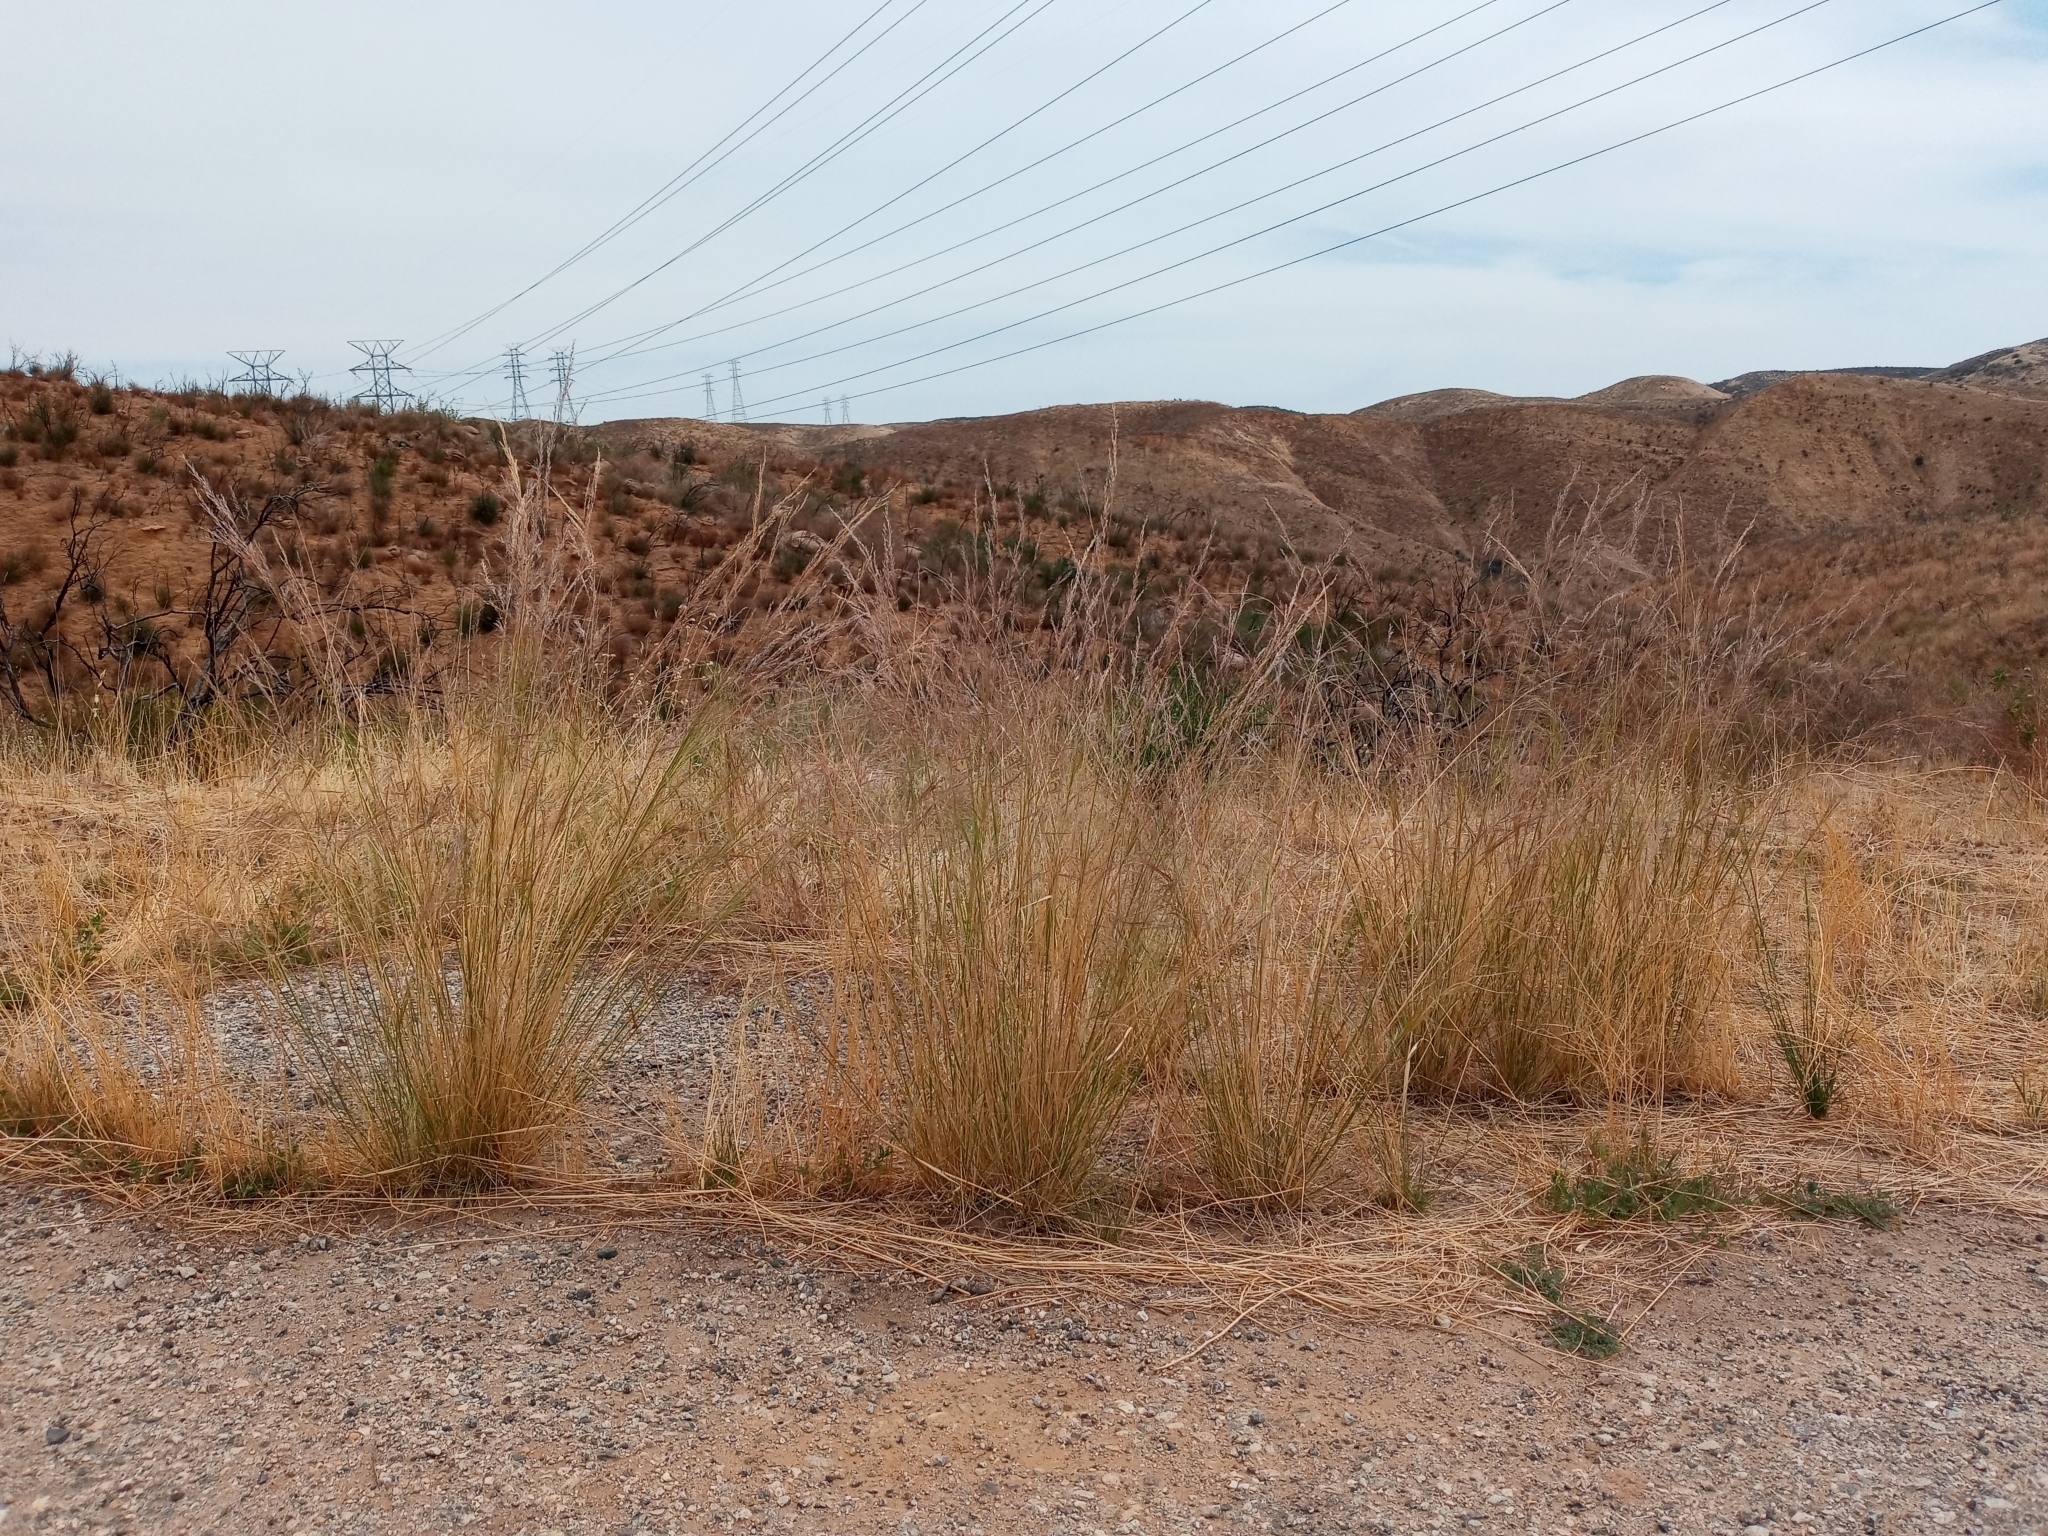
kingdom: Plantae
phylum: Tracheophyta
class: Liliopsida
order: Poales
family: Poaceae
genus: Nassella
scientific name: Nassella pulchra
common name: Purple needlegrass
